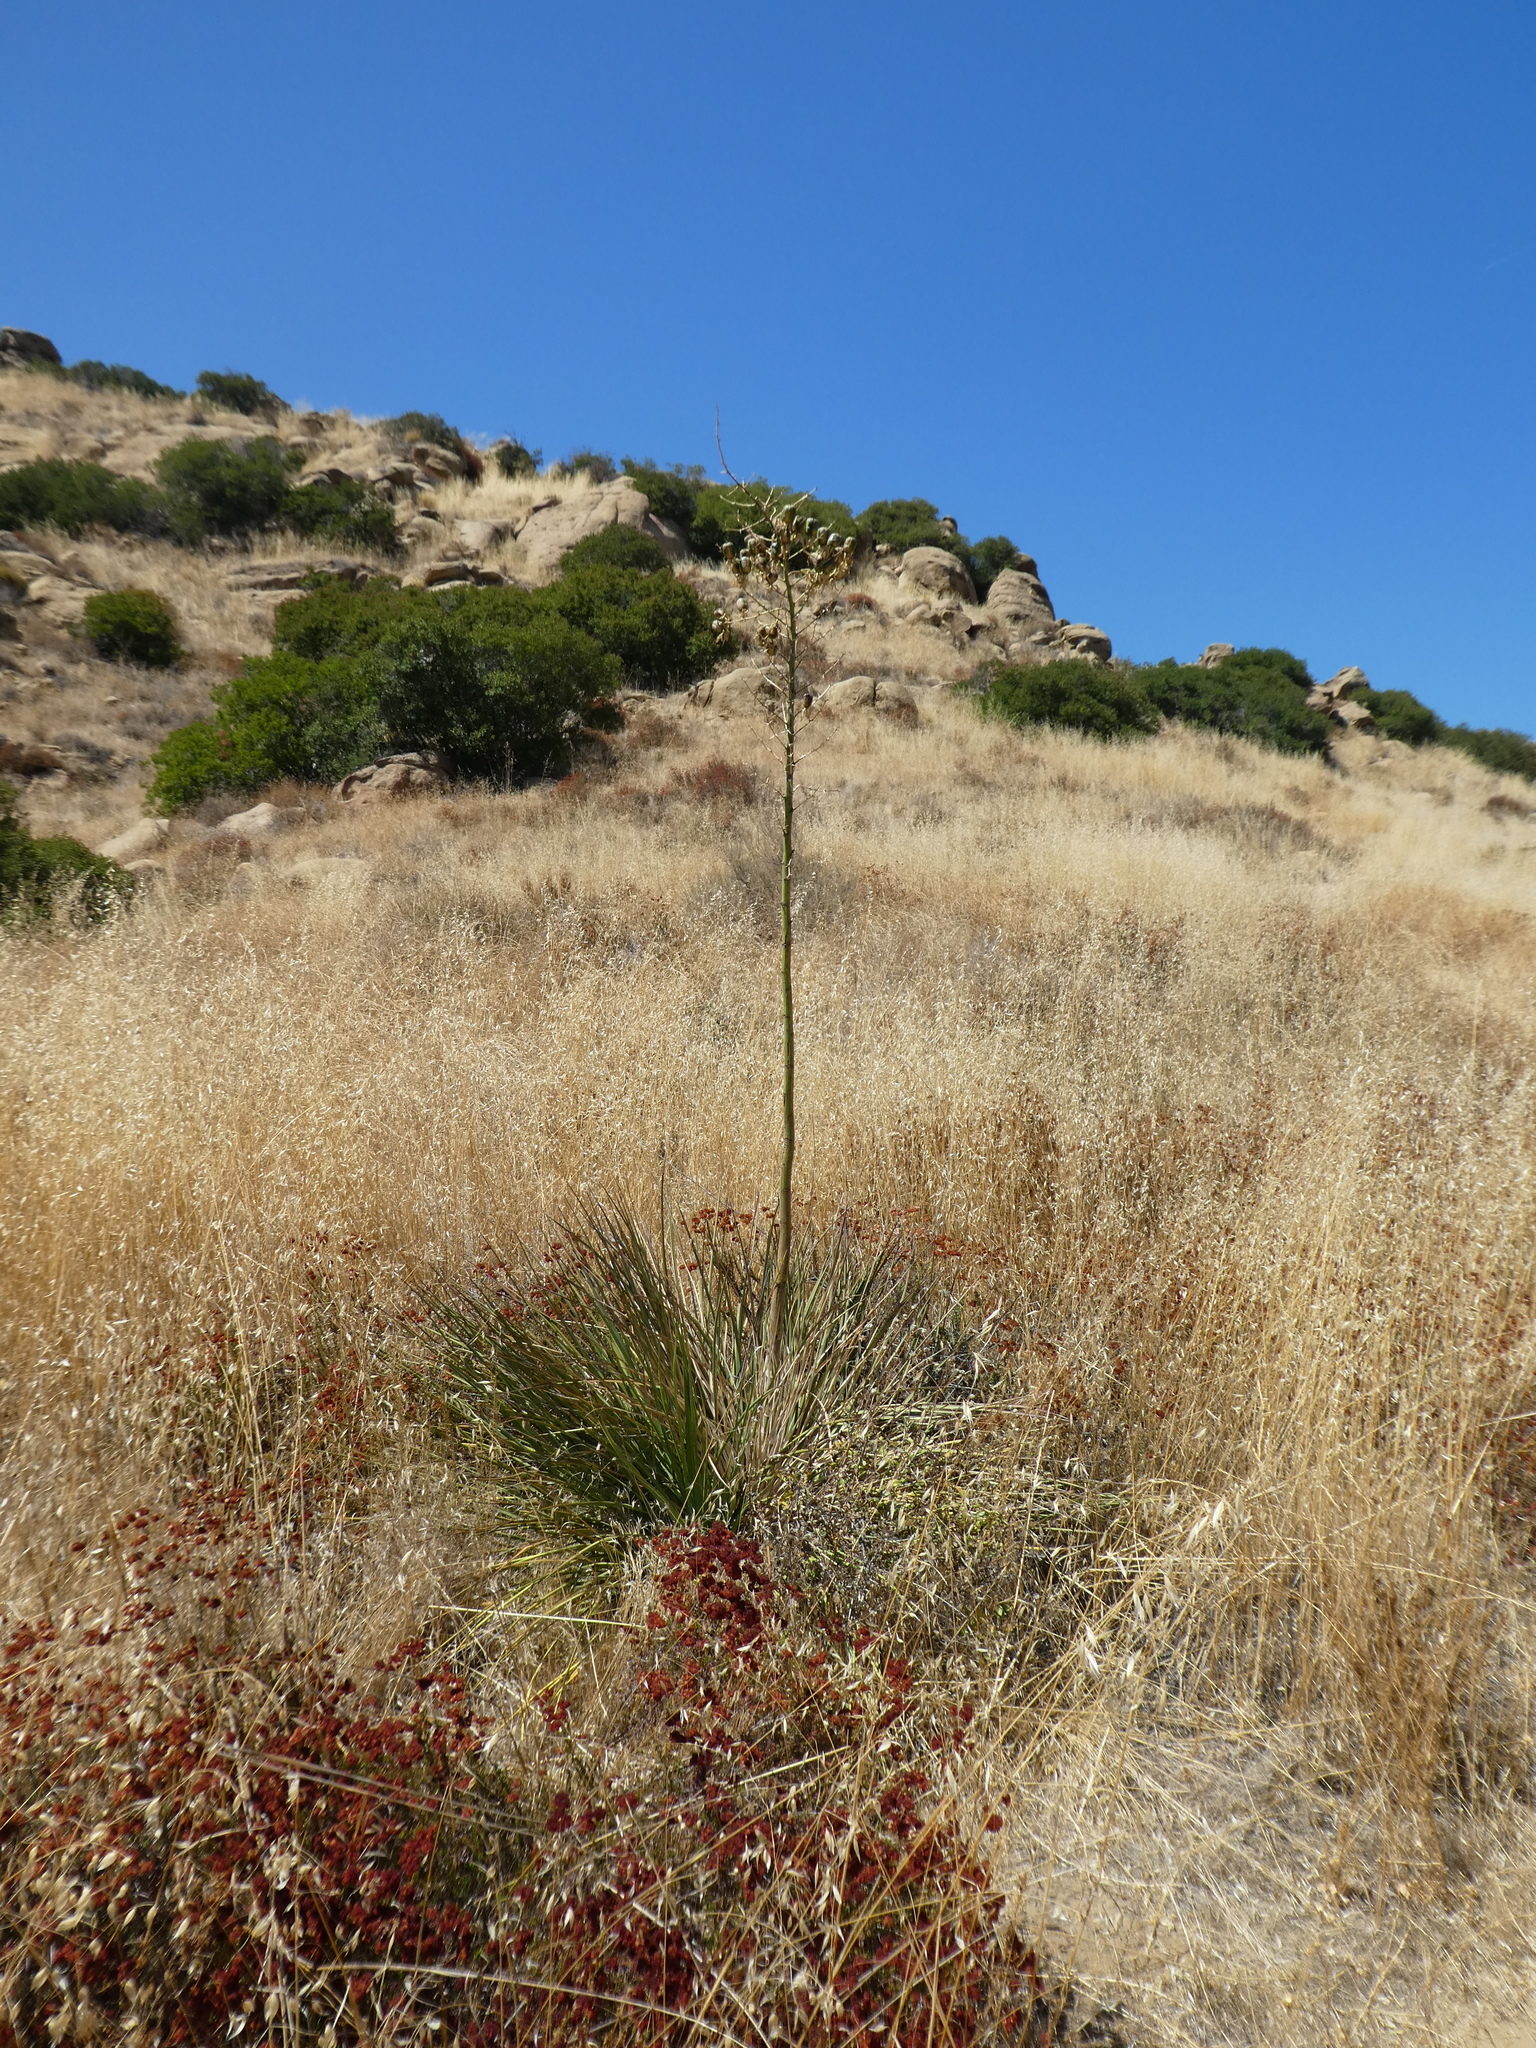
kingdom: Plantae
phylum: Tracheophyta
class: Liliopsida
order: Asparagales
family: Asparagaceae
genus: Hesperoyucca
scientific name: Hesperoyucca whipplei
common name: Our lord's-candle
